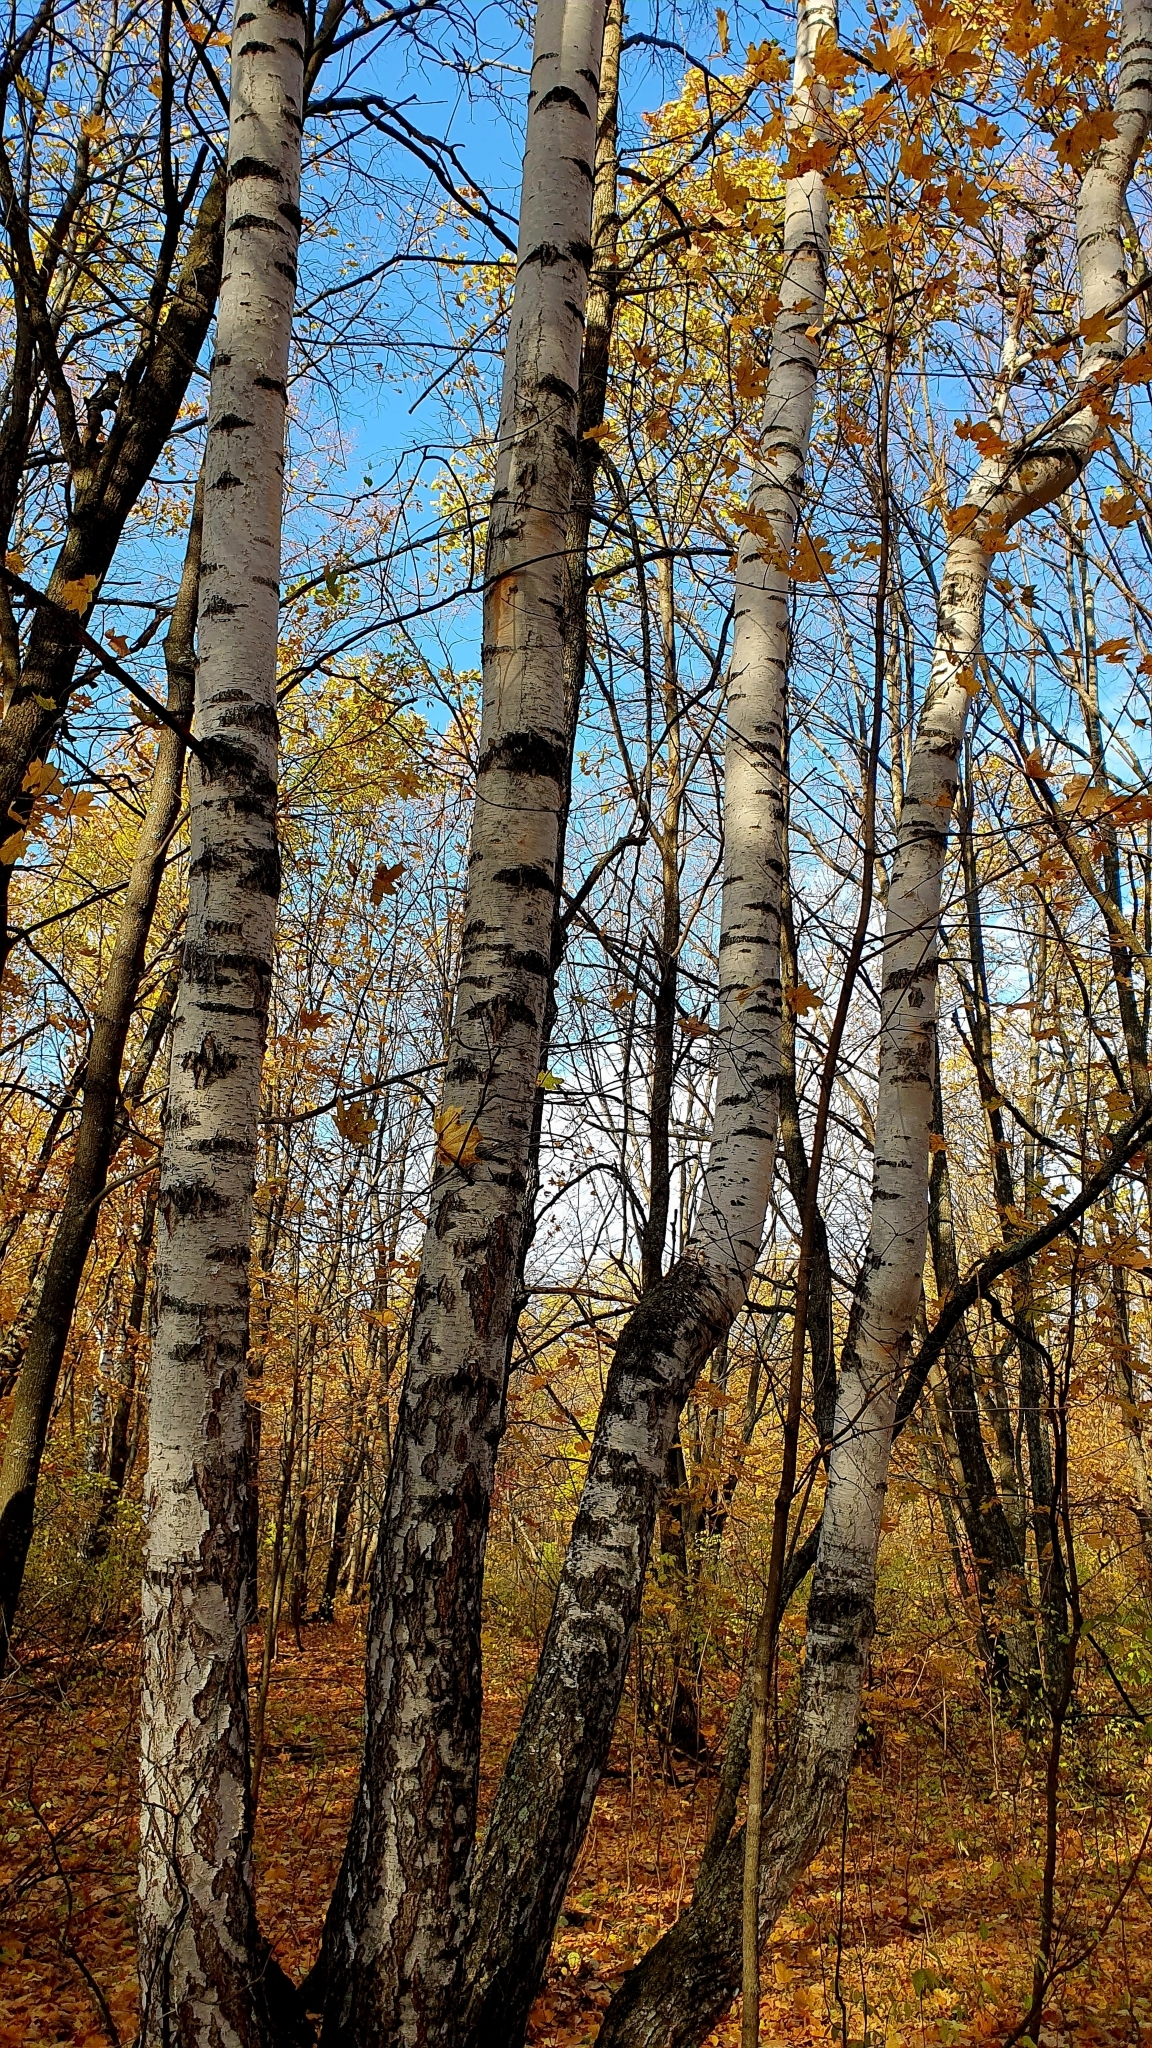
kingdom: Plantae
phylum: Tracheophyta
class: Magnoliopsida
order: Fagales
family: Betulaceae
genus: Betula
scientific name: Betula pendula
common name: Silver birch
